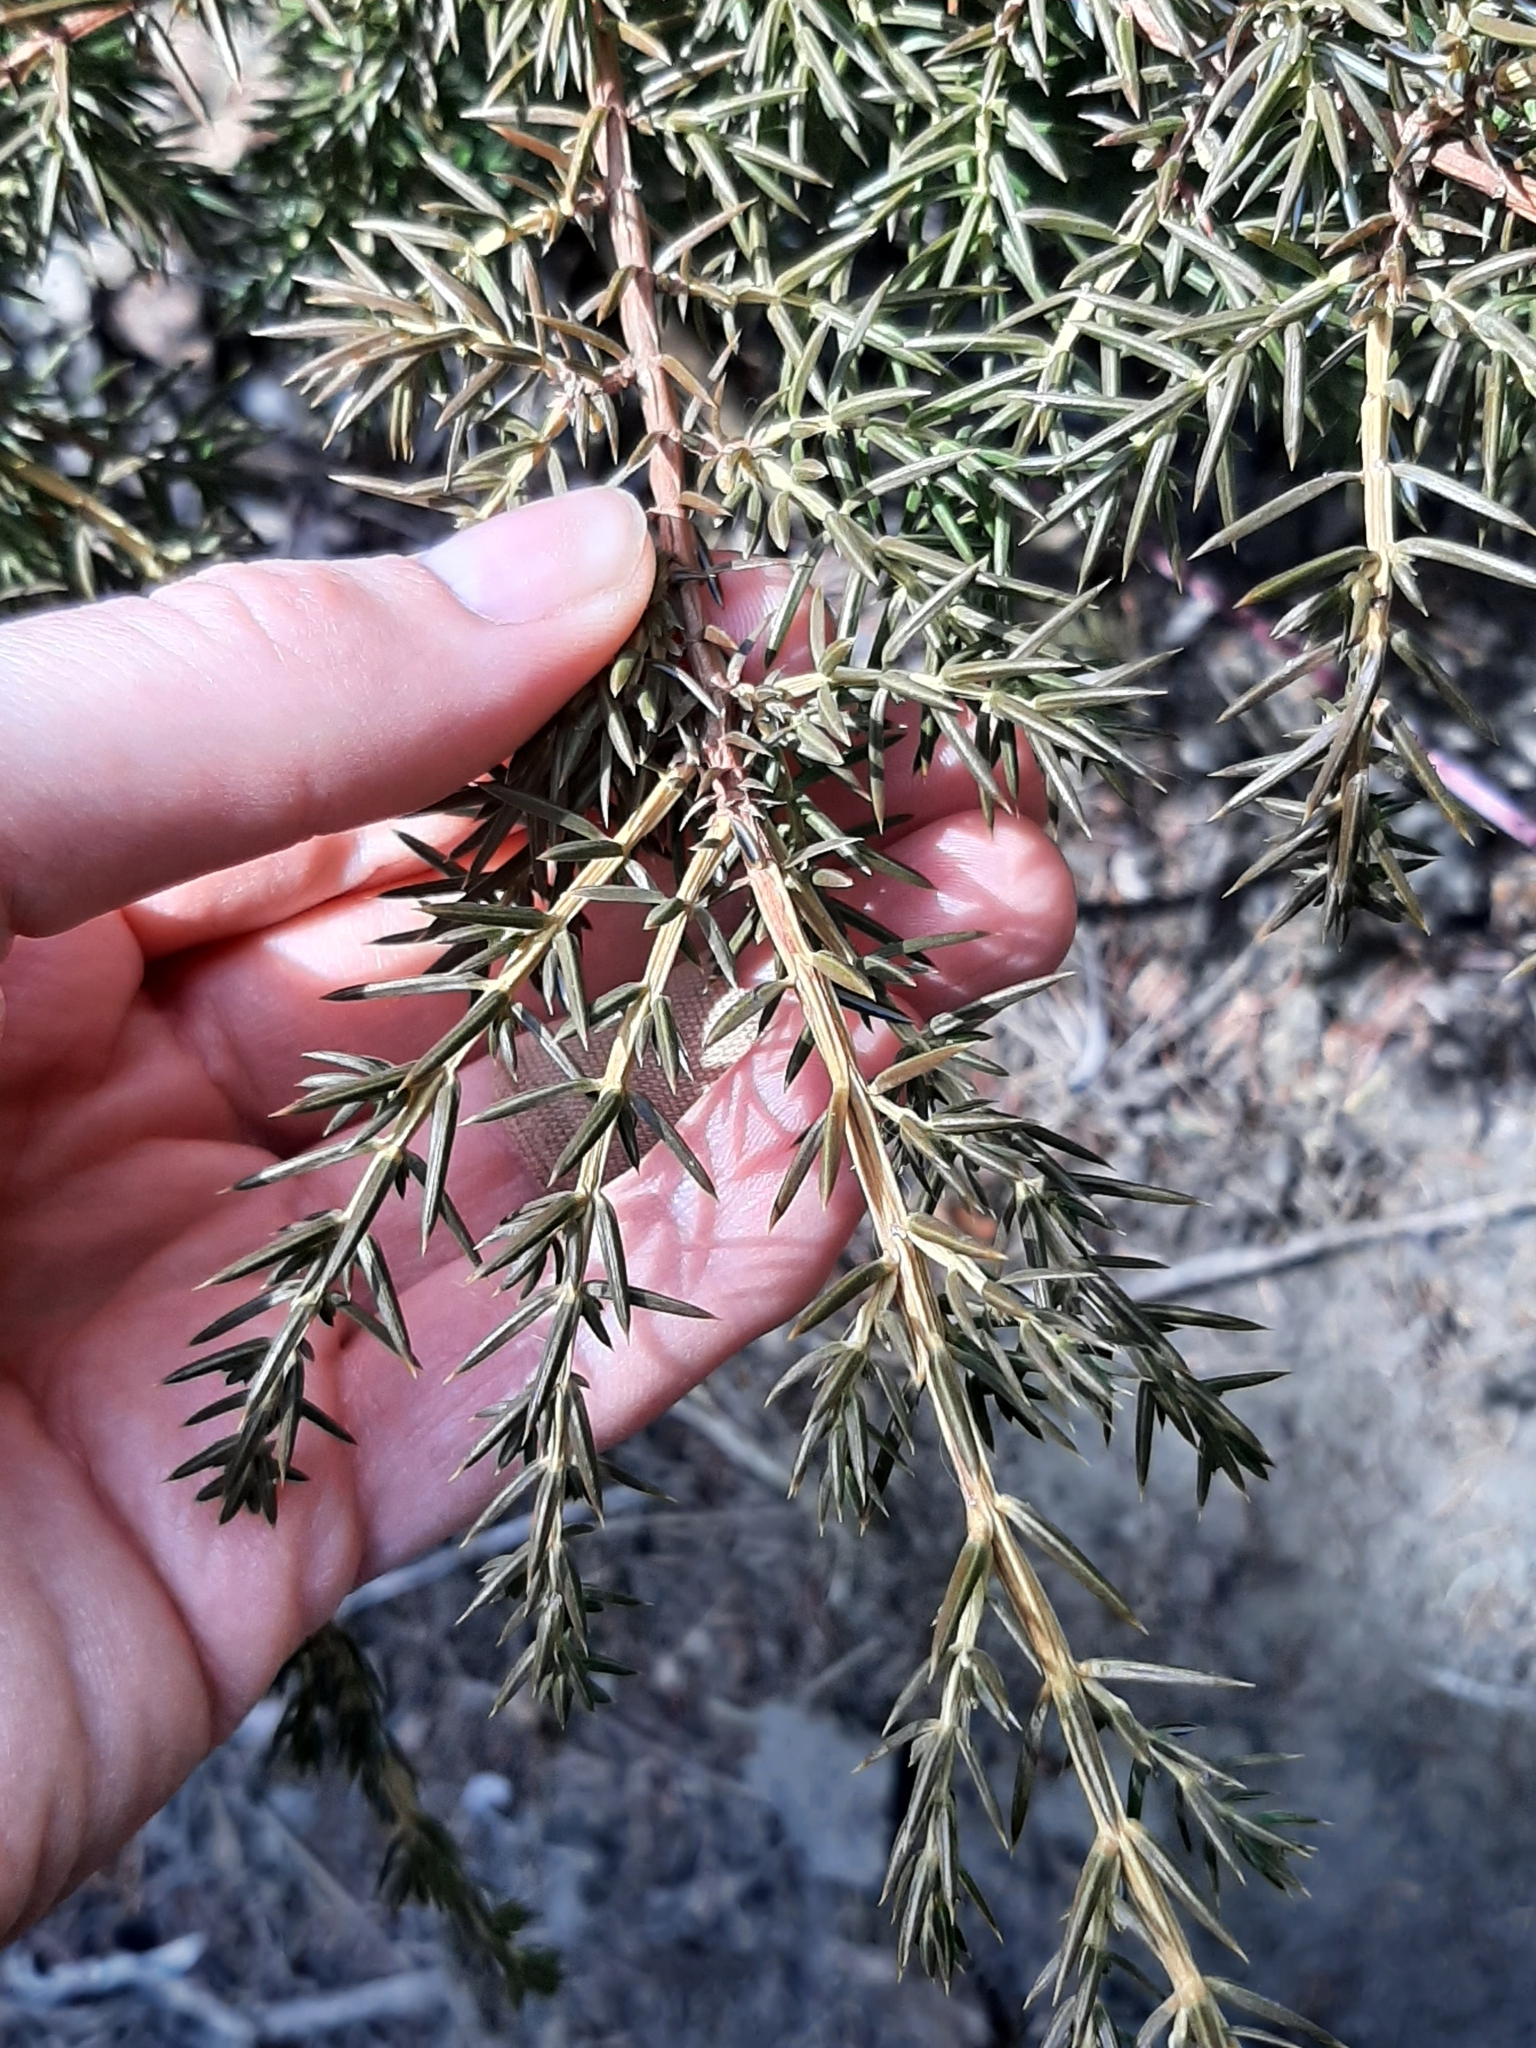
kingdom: Plantae
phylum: Tracheophyta
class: Pinopsida
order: Pinales
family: Cupressaceae
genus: Juniperus
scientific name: Juniperus communis
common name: Common juniper
